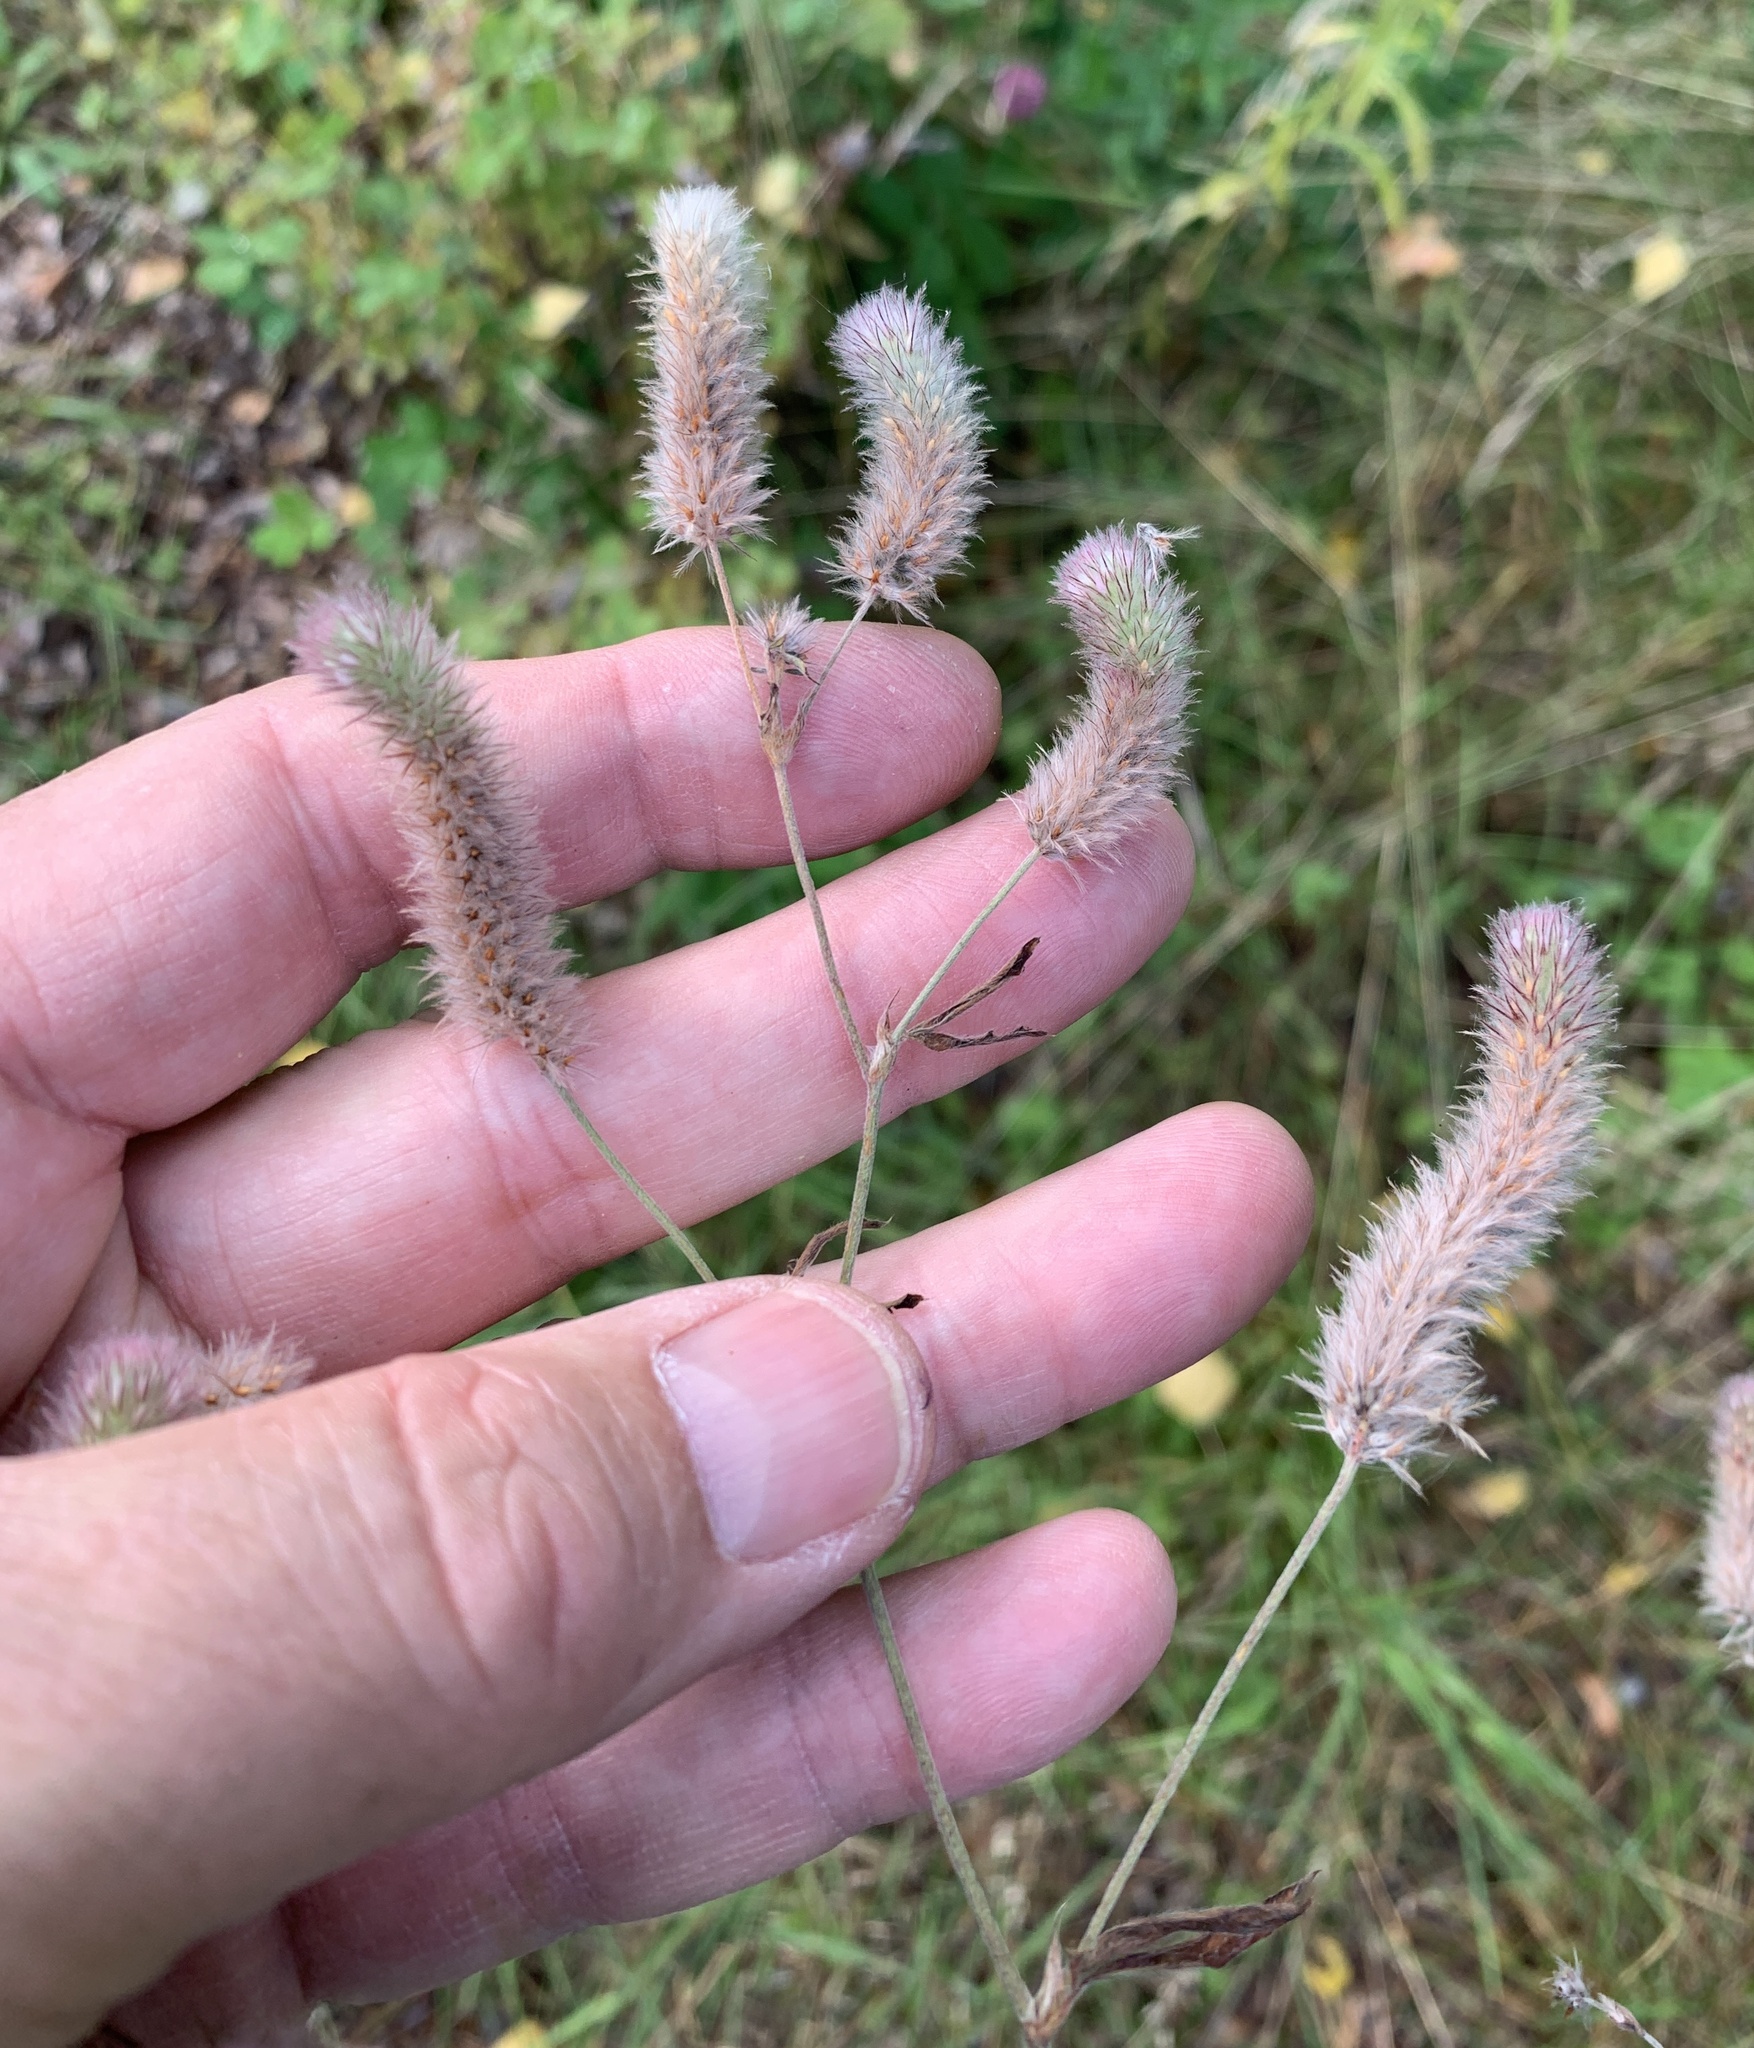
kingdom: Plantae
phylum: Tracheophyta
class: Magnoliopsida
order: Fabales
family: Fabaceae
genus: Trifolium
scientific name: Trifolium arvense
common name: Hare's-foot clover
